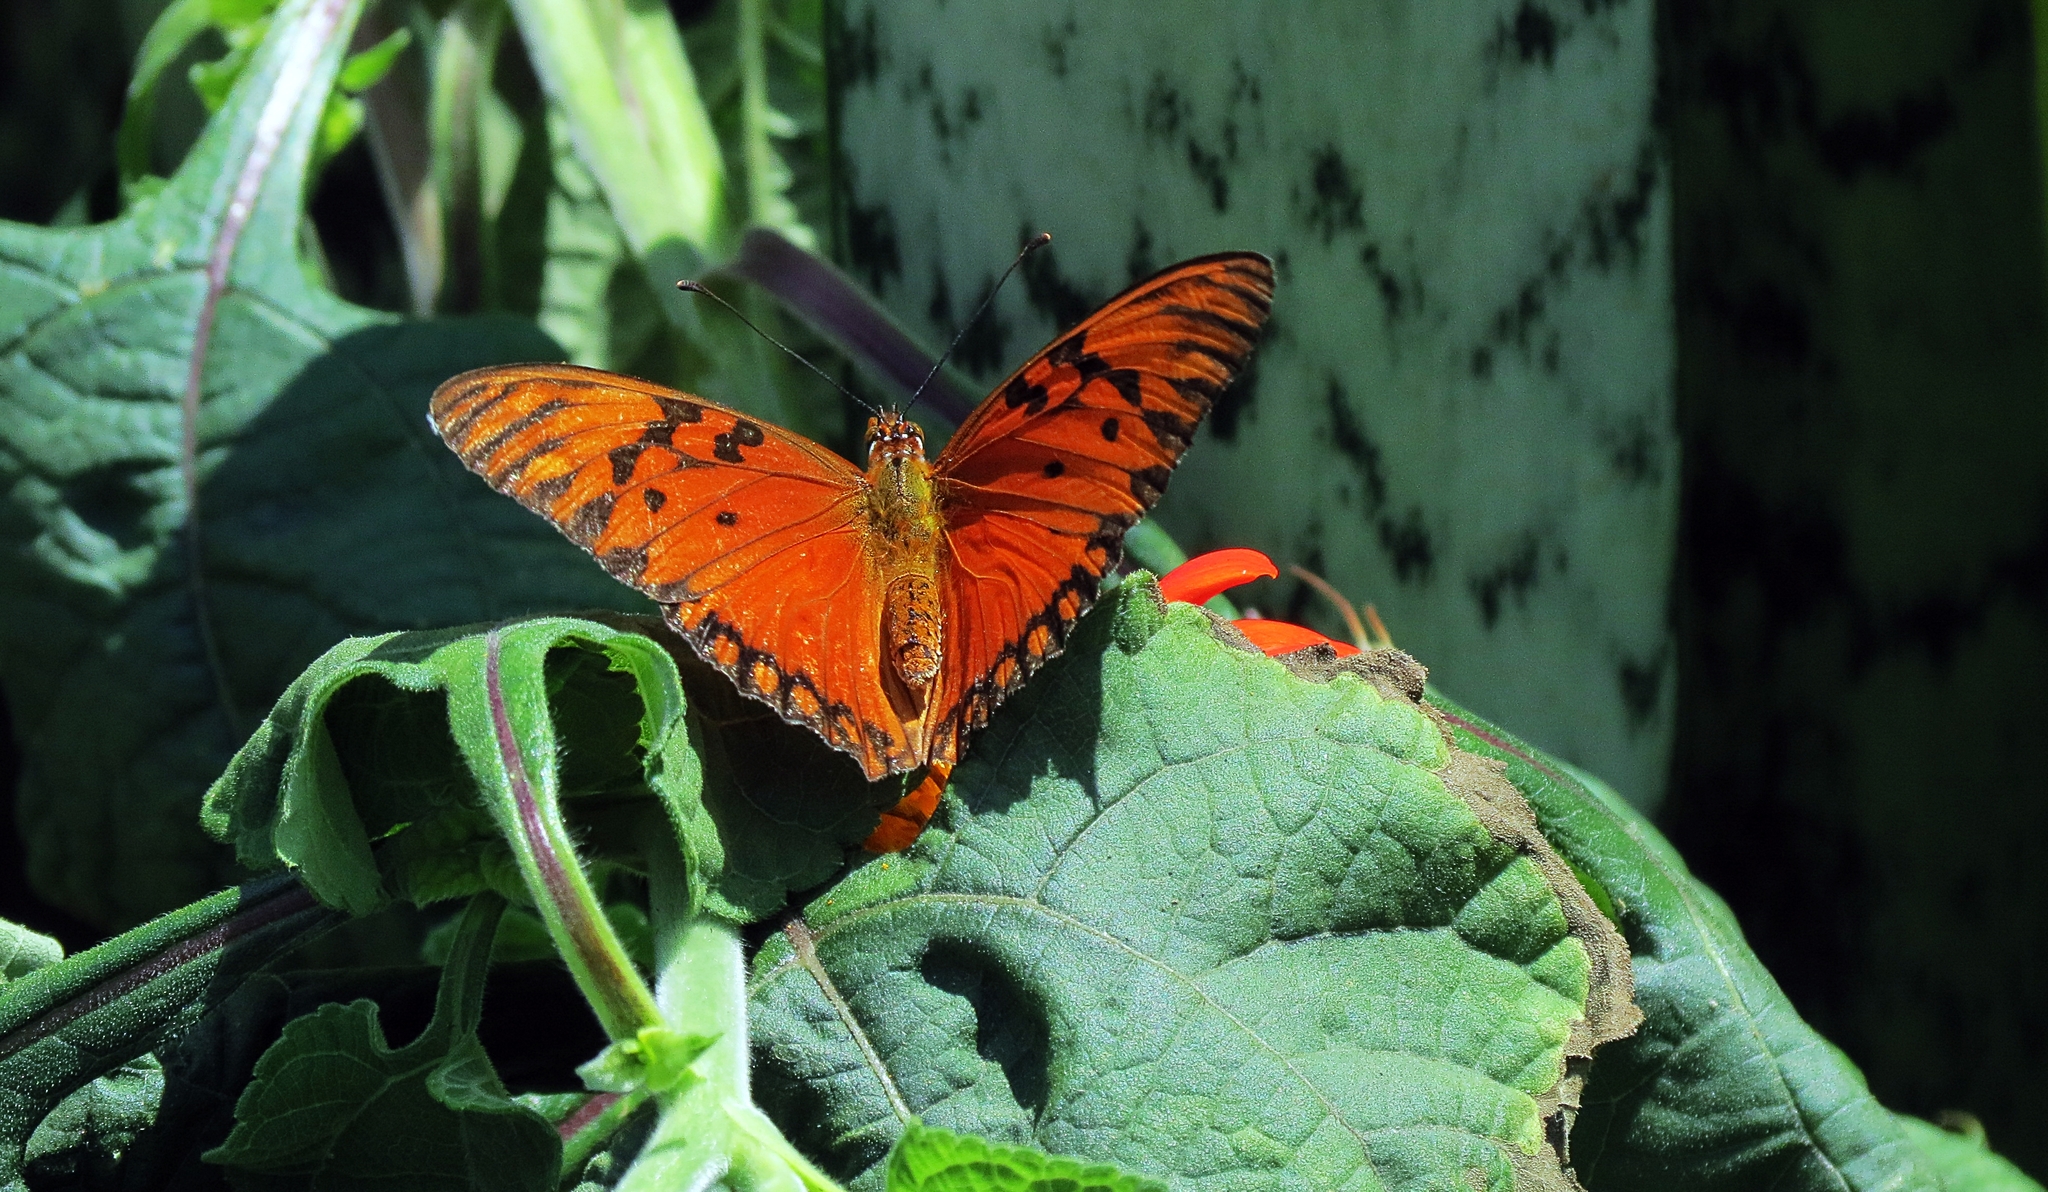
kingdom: Animalia
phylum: Arthropoda
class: Insecta
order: Lepidoptera
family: Nymphalidae
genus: Dione
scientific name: Dione vanillae
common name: Gulf fritillary
